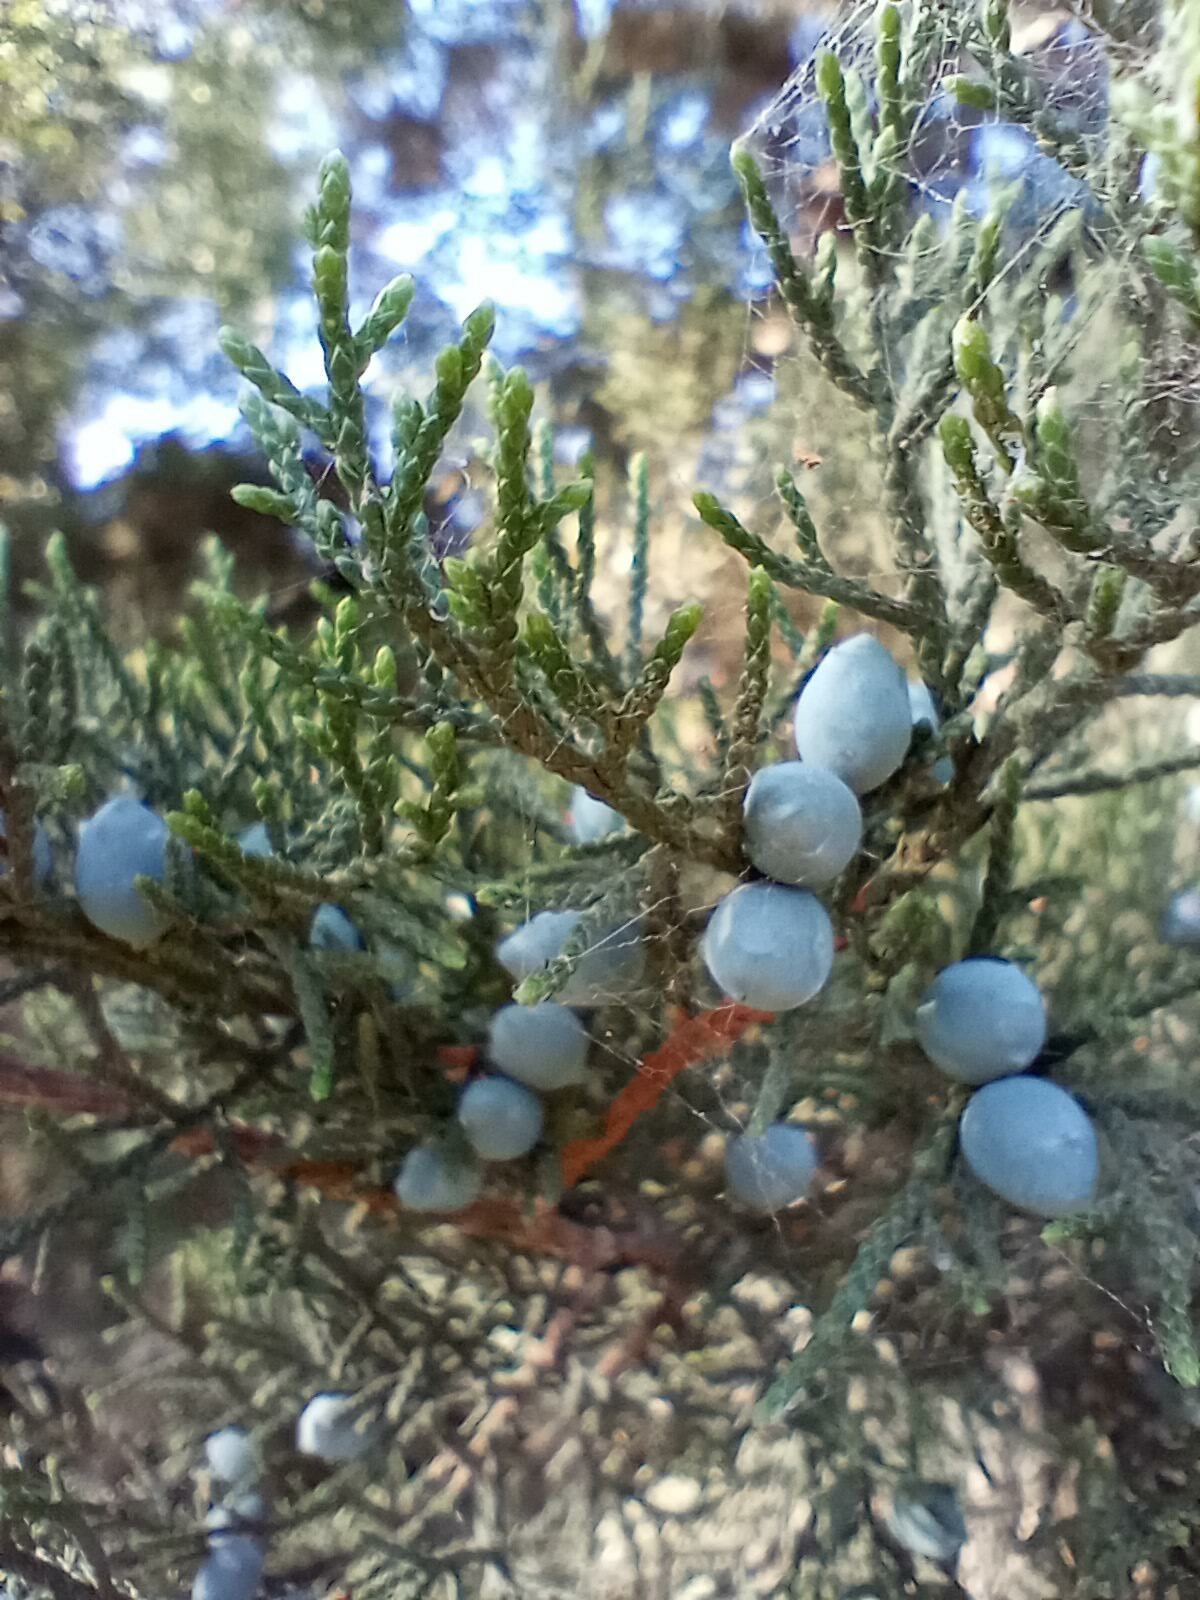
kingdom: Plantae
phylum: Tracheophyta
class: Pinopsida
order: Pinales
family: Cupressaceae
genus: Juniperus
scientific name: Juniperus ashei
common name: Mexican juniper
